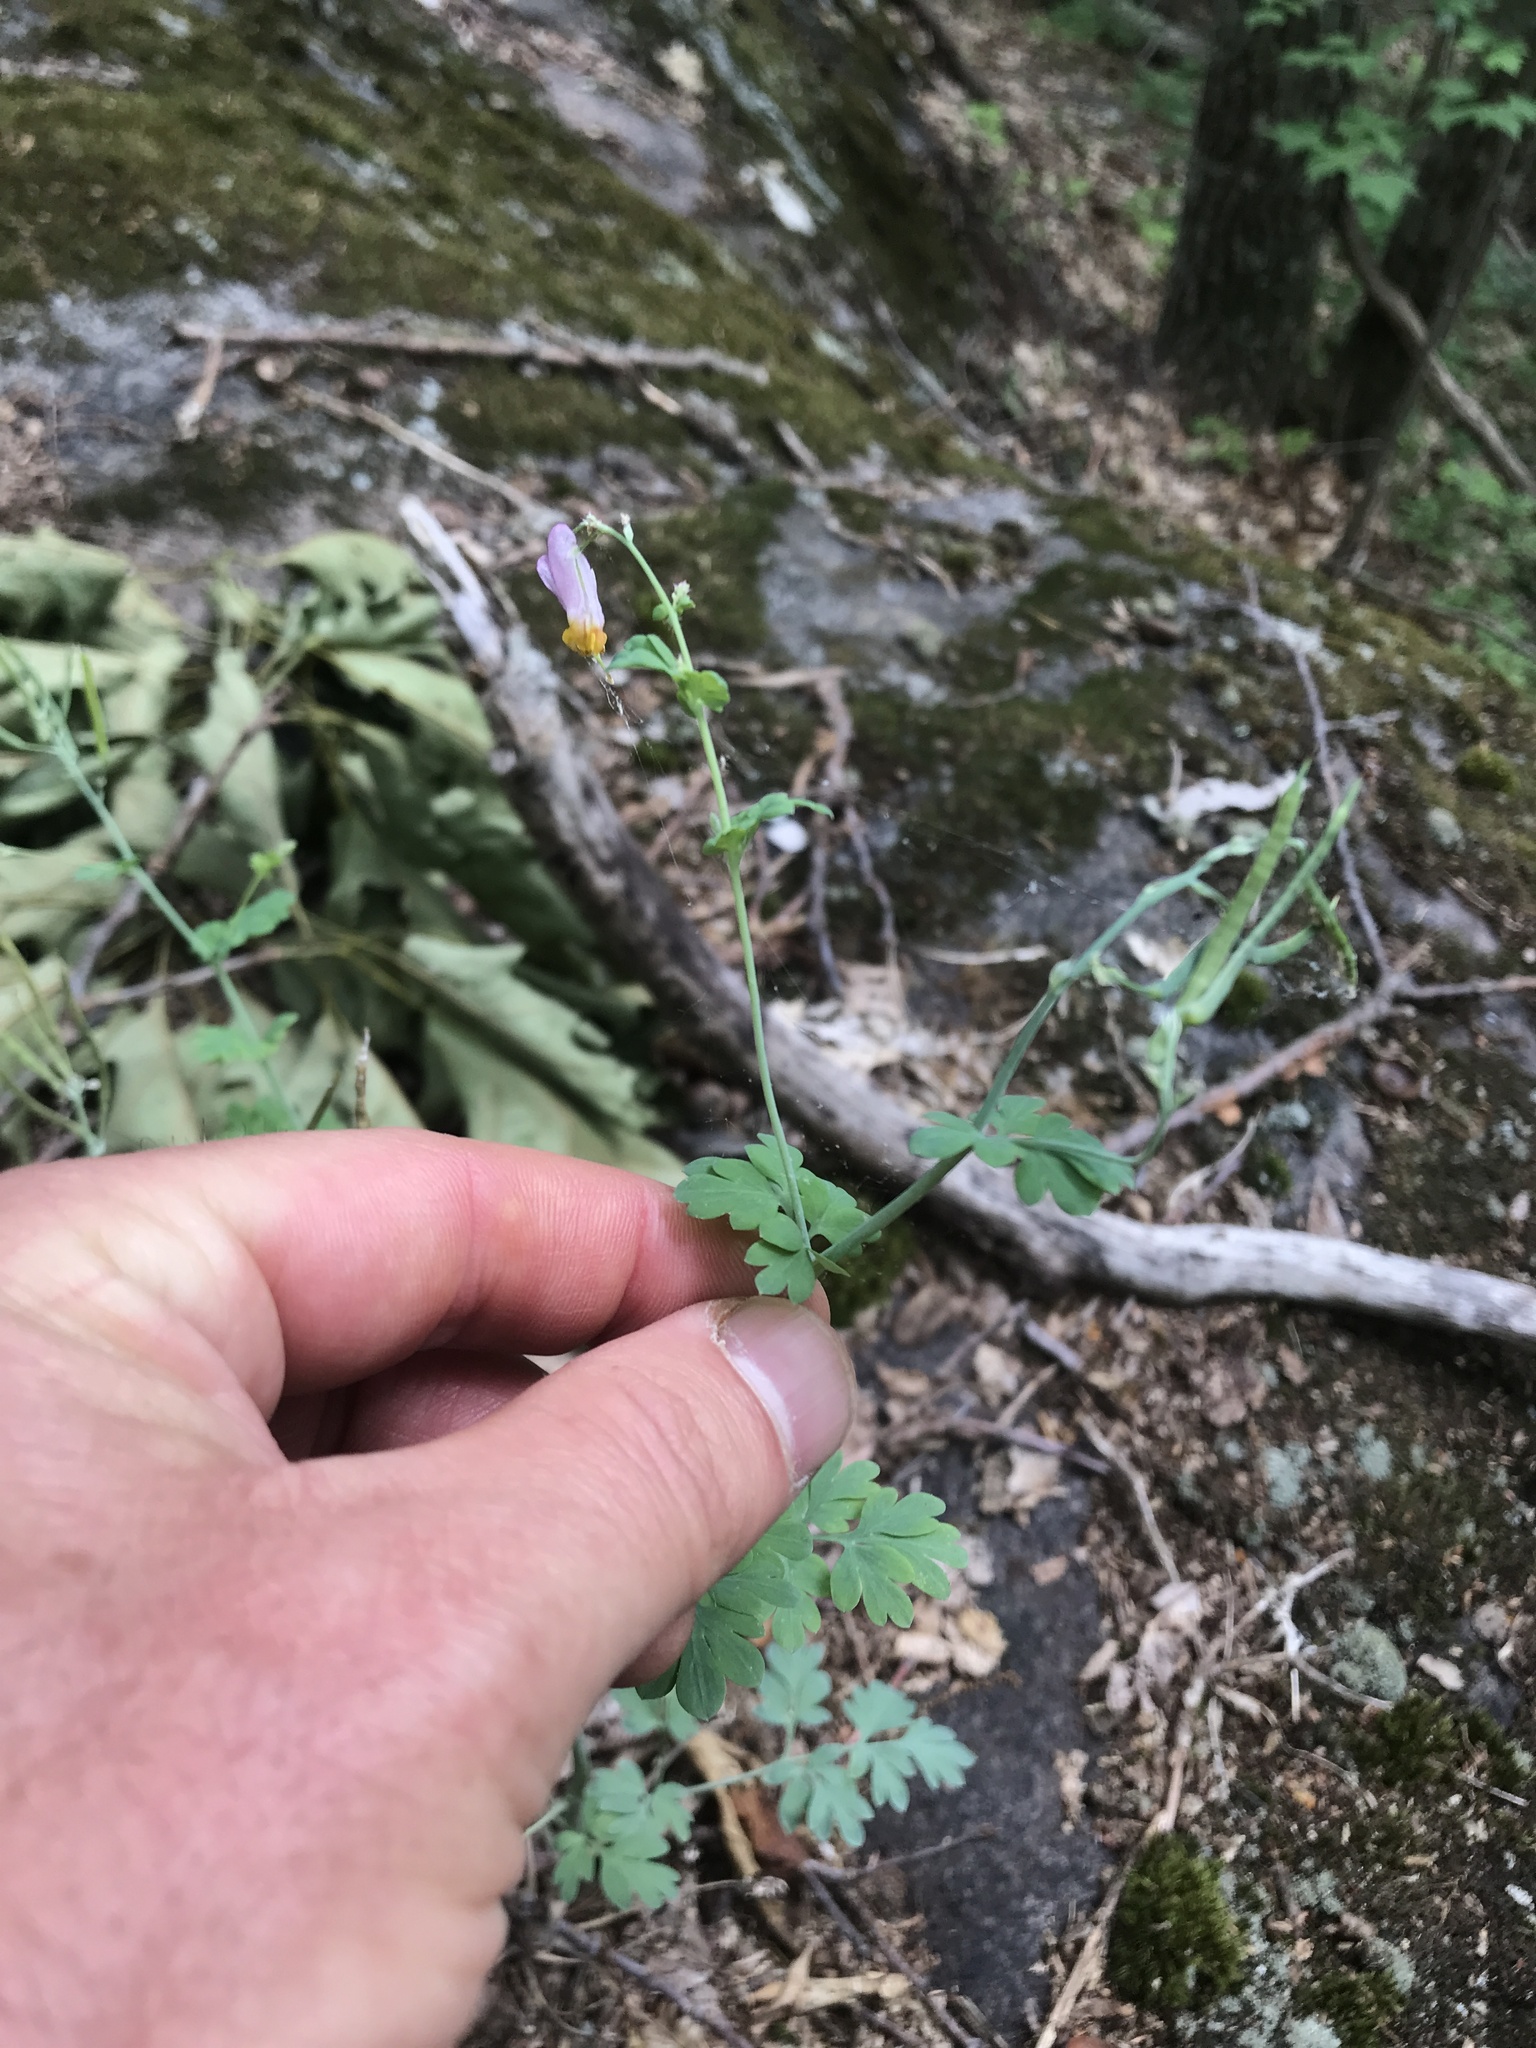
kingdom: Plantae
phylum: Tracheophyta
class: Magnoliopsida
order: Ranunculales
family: Papaveraceae
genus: Capnoides
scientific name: Capnoides sempervirens
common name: Rock harlequin
